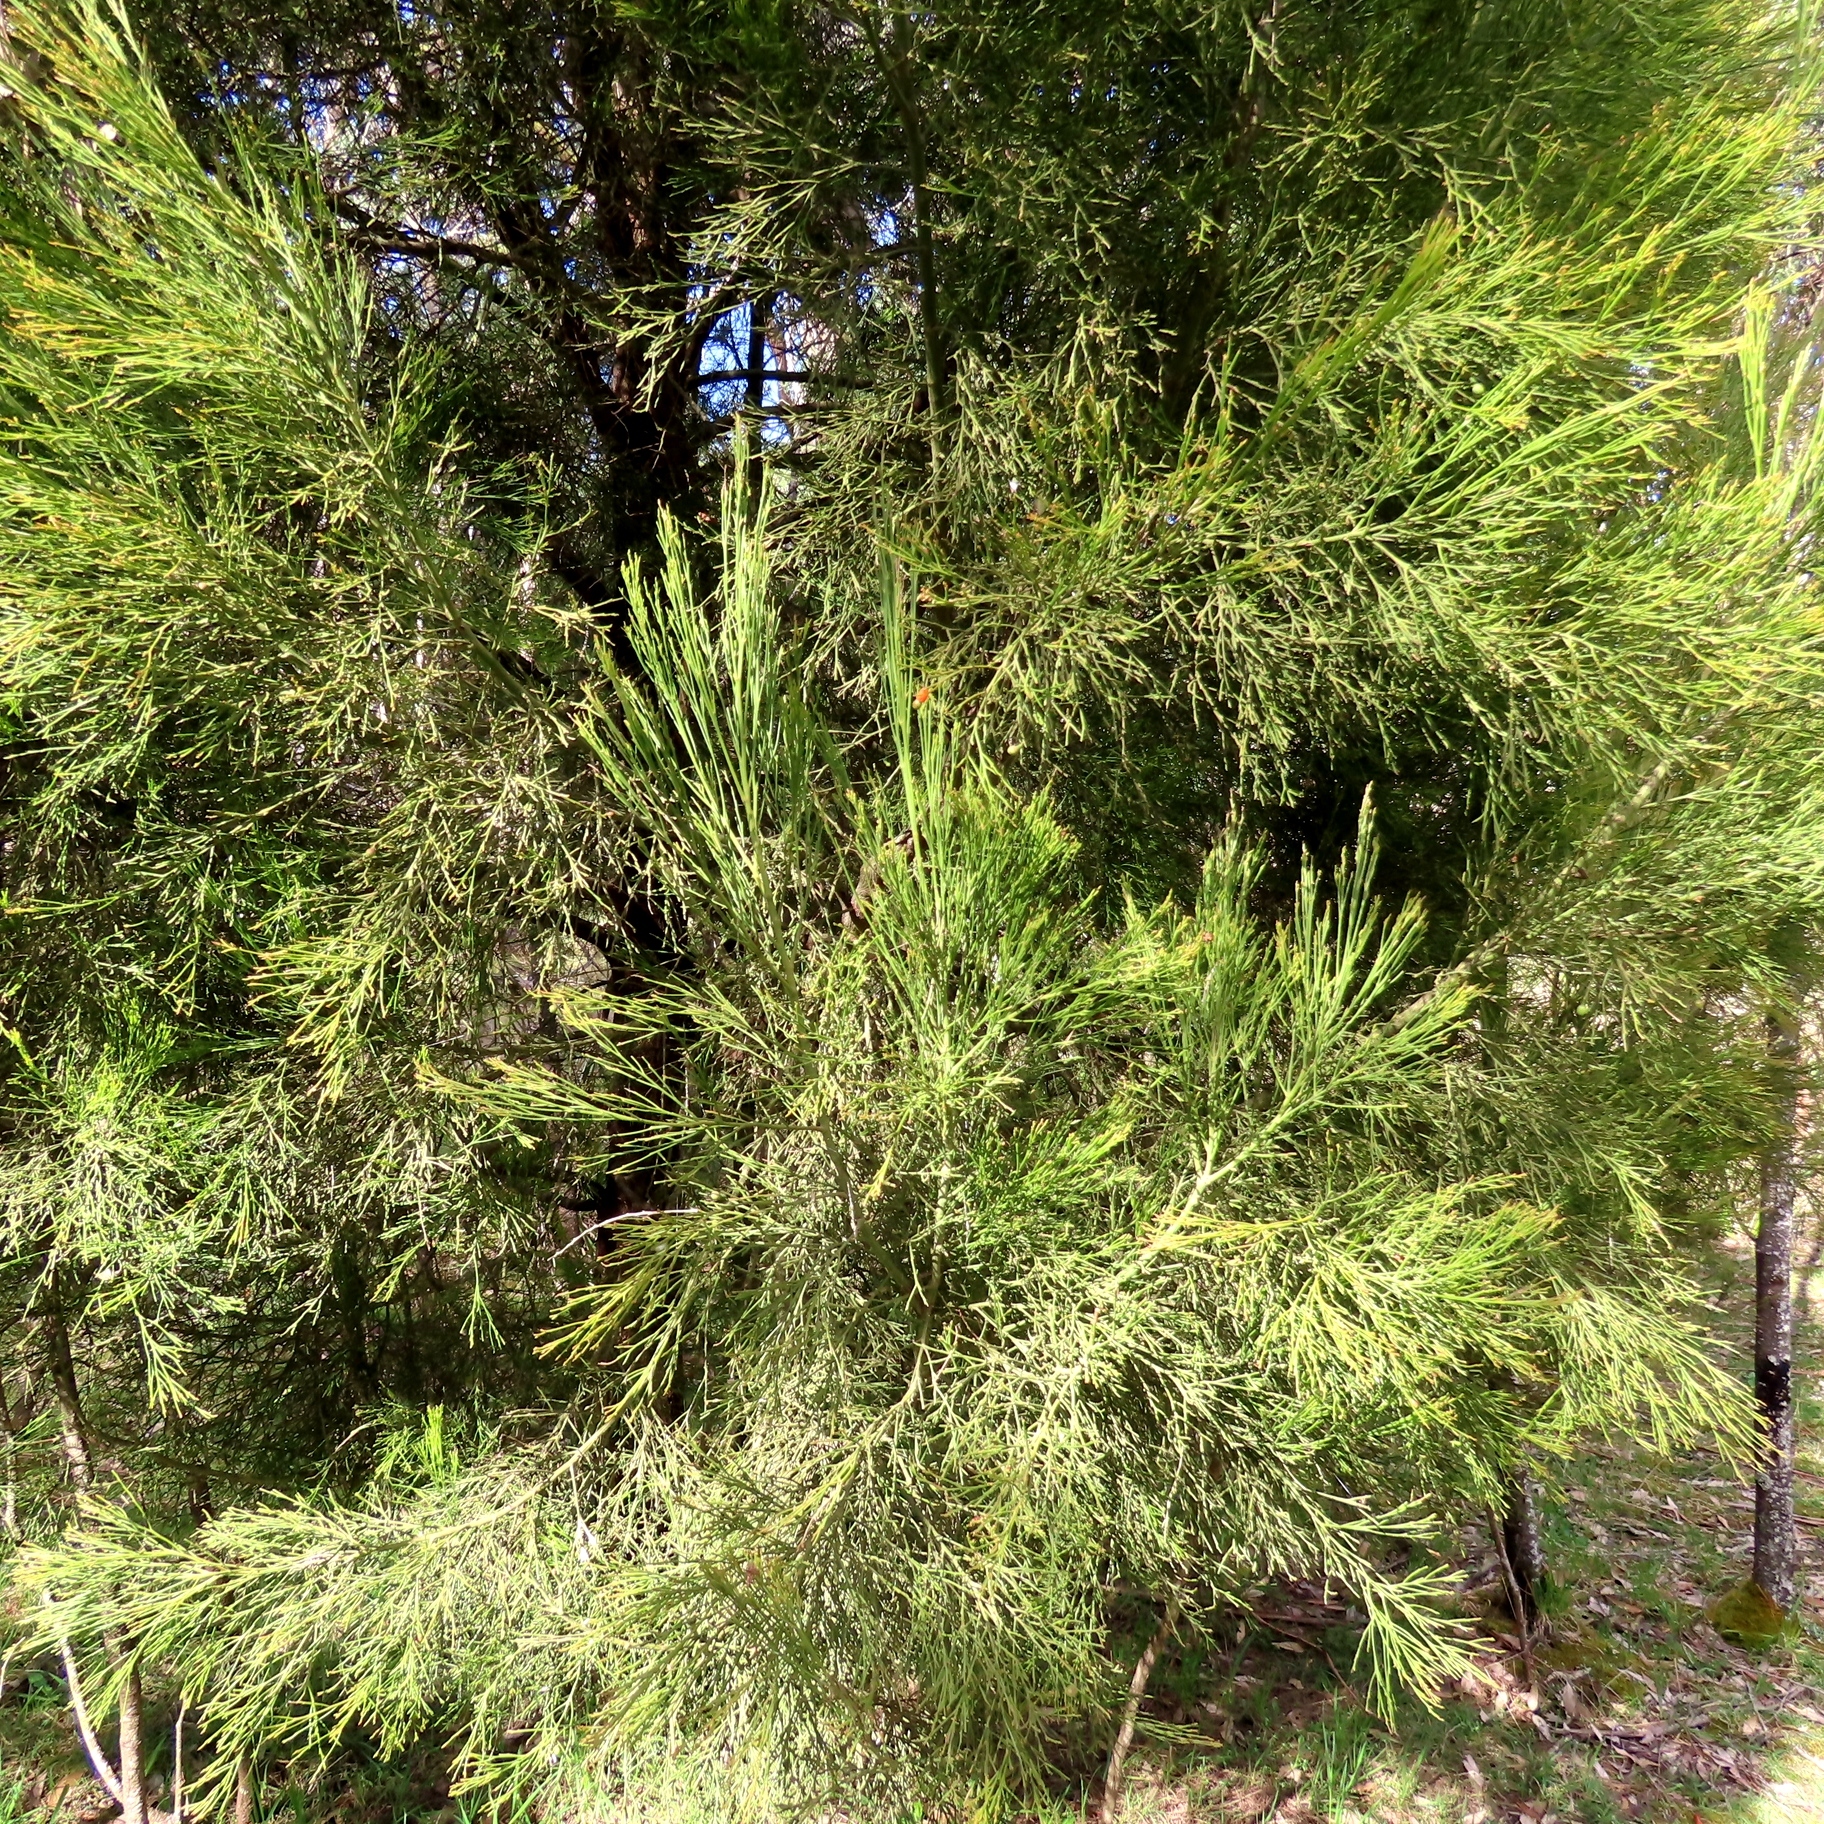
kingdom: Plantae
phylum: Tracheophyta
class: Magnoliopsida
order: Santalales
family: Santalaceae
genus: Exocarpos
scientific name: Exocarpos cupressiformis
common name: Cherry ballart
